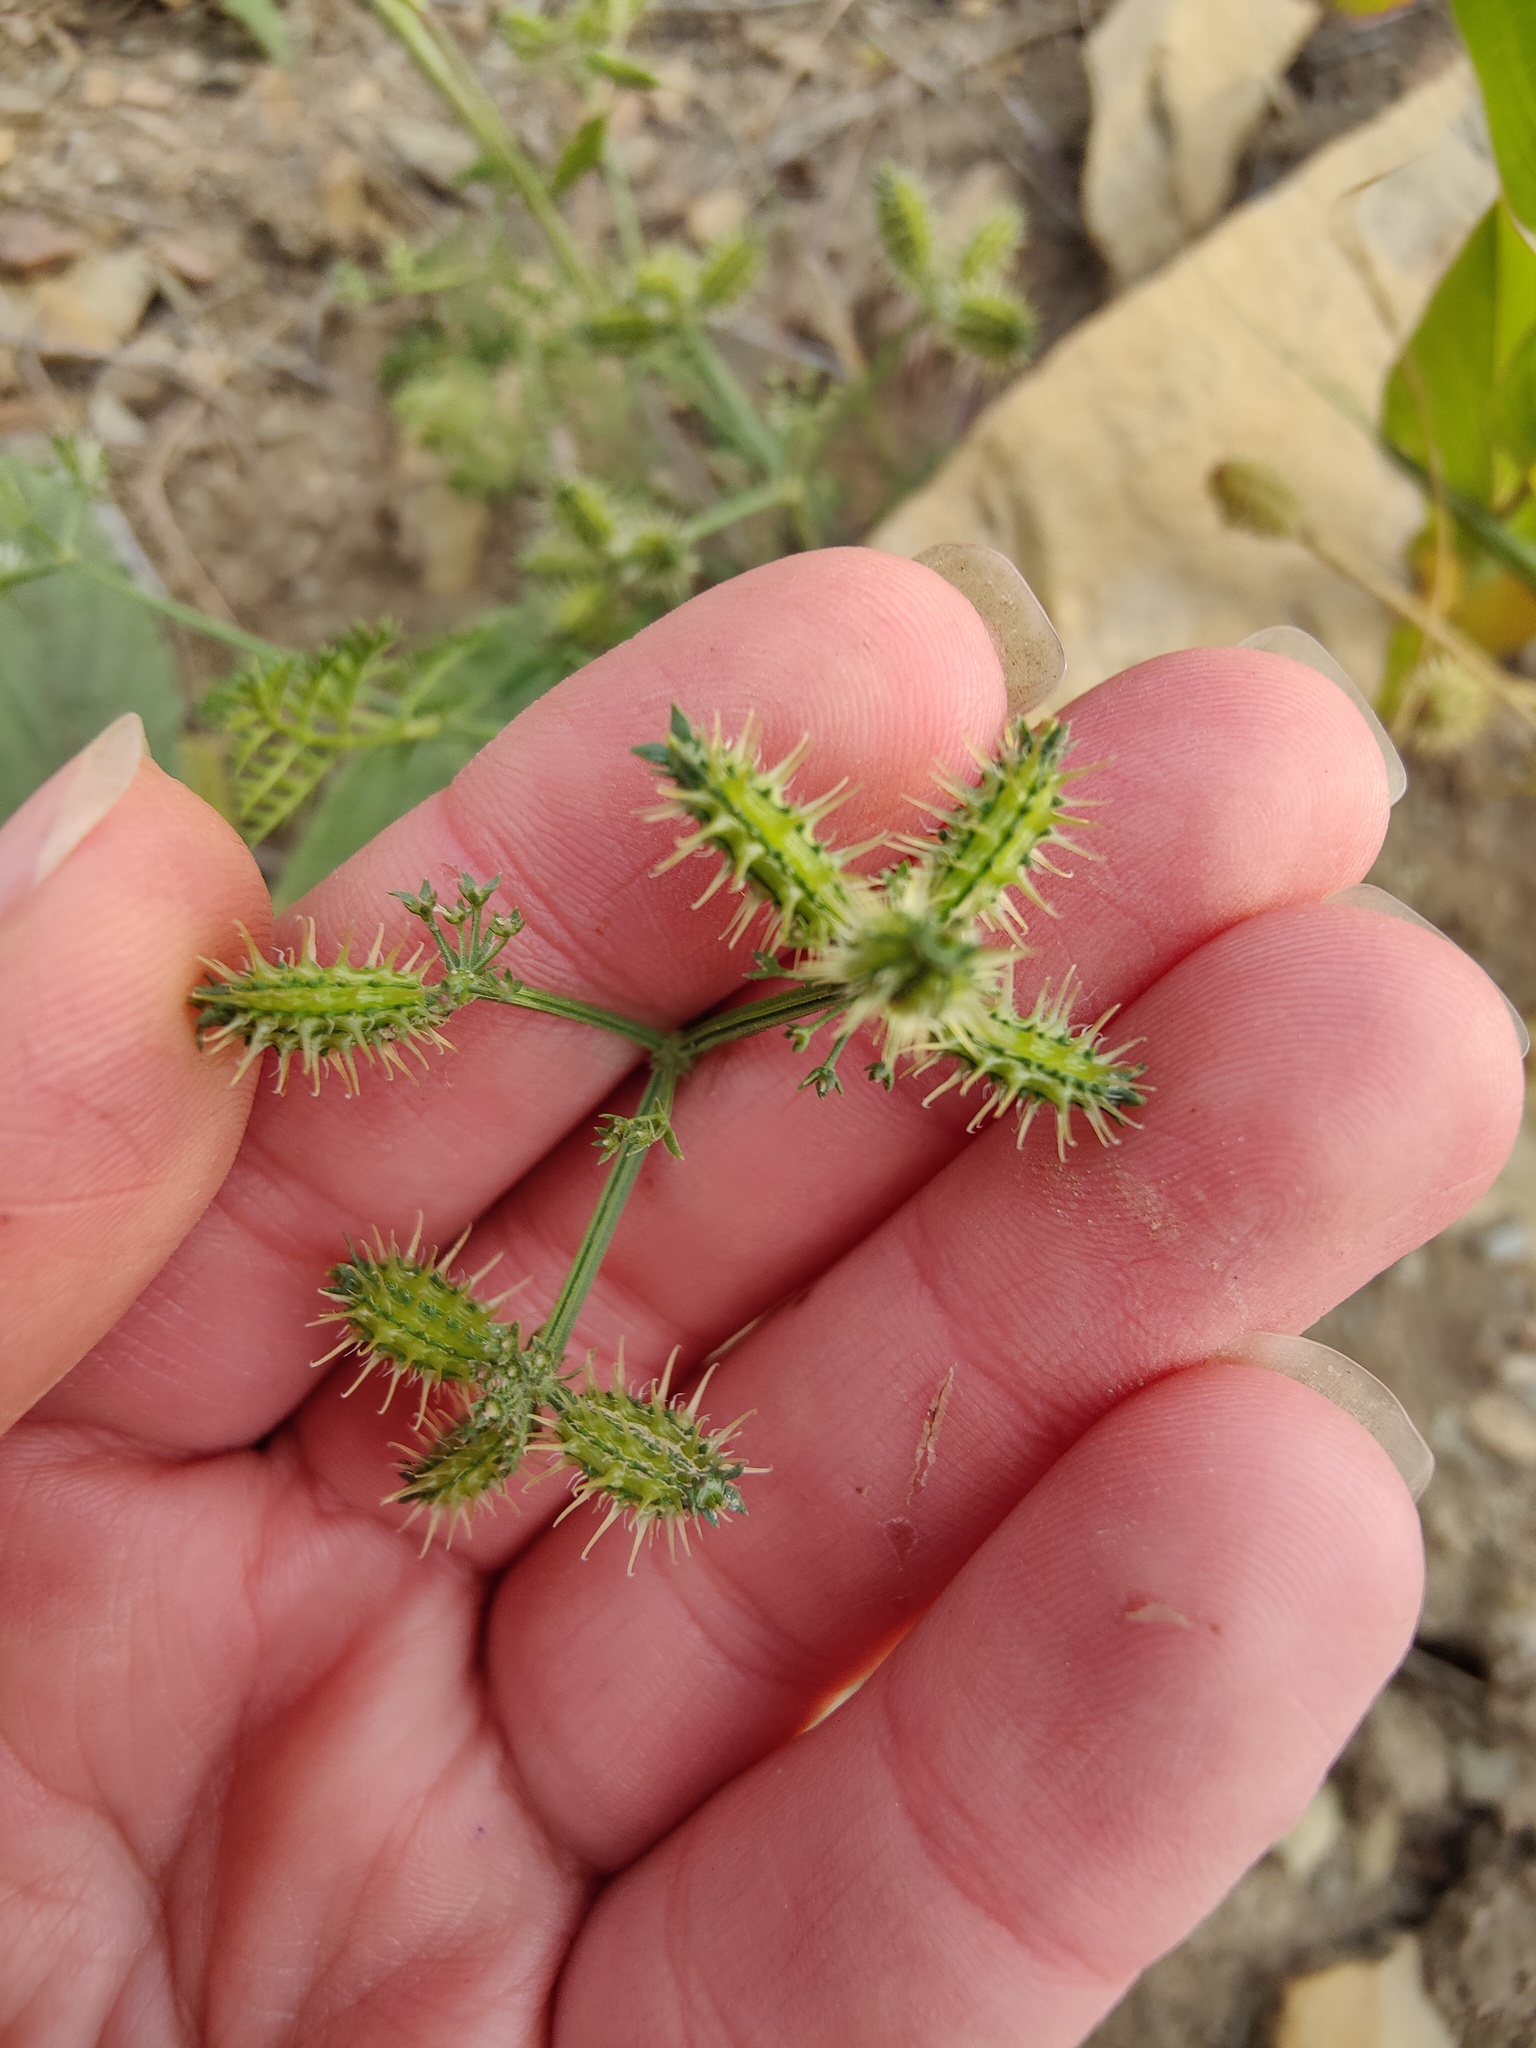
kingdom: Plantae
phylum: Tracheophyta
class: Magnoliopsida
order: Apiales
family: Apiaceae
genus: Caucalis
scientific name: Caucalis platycarpos
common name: Small bur-parsley
